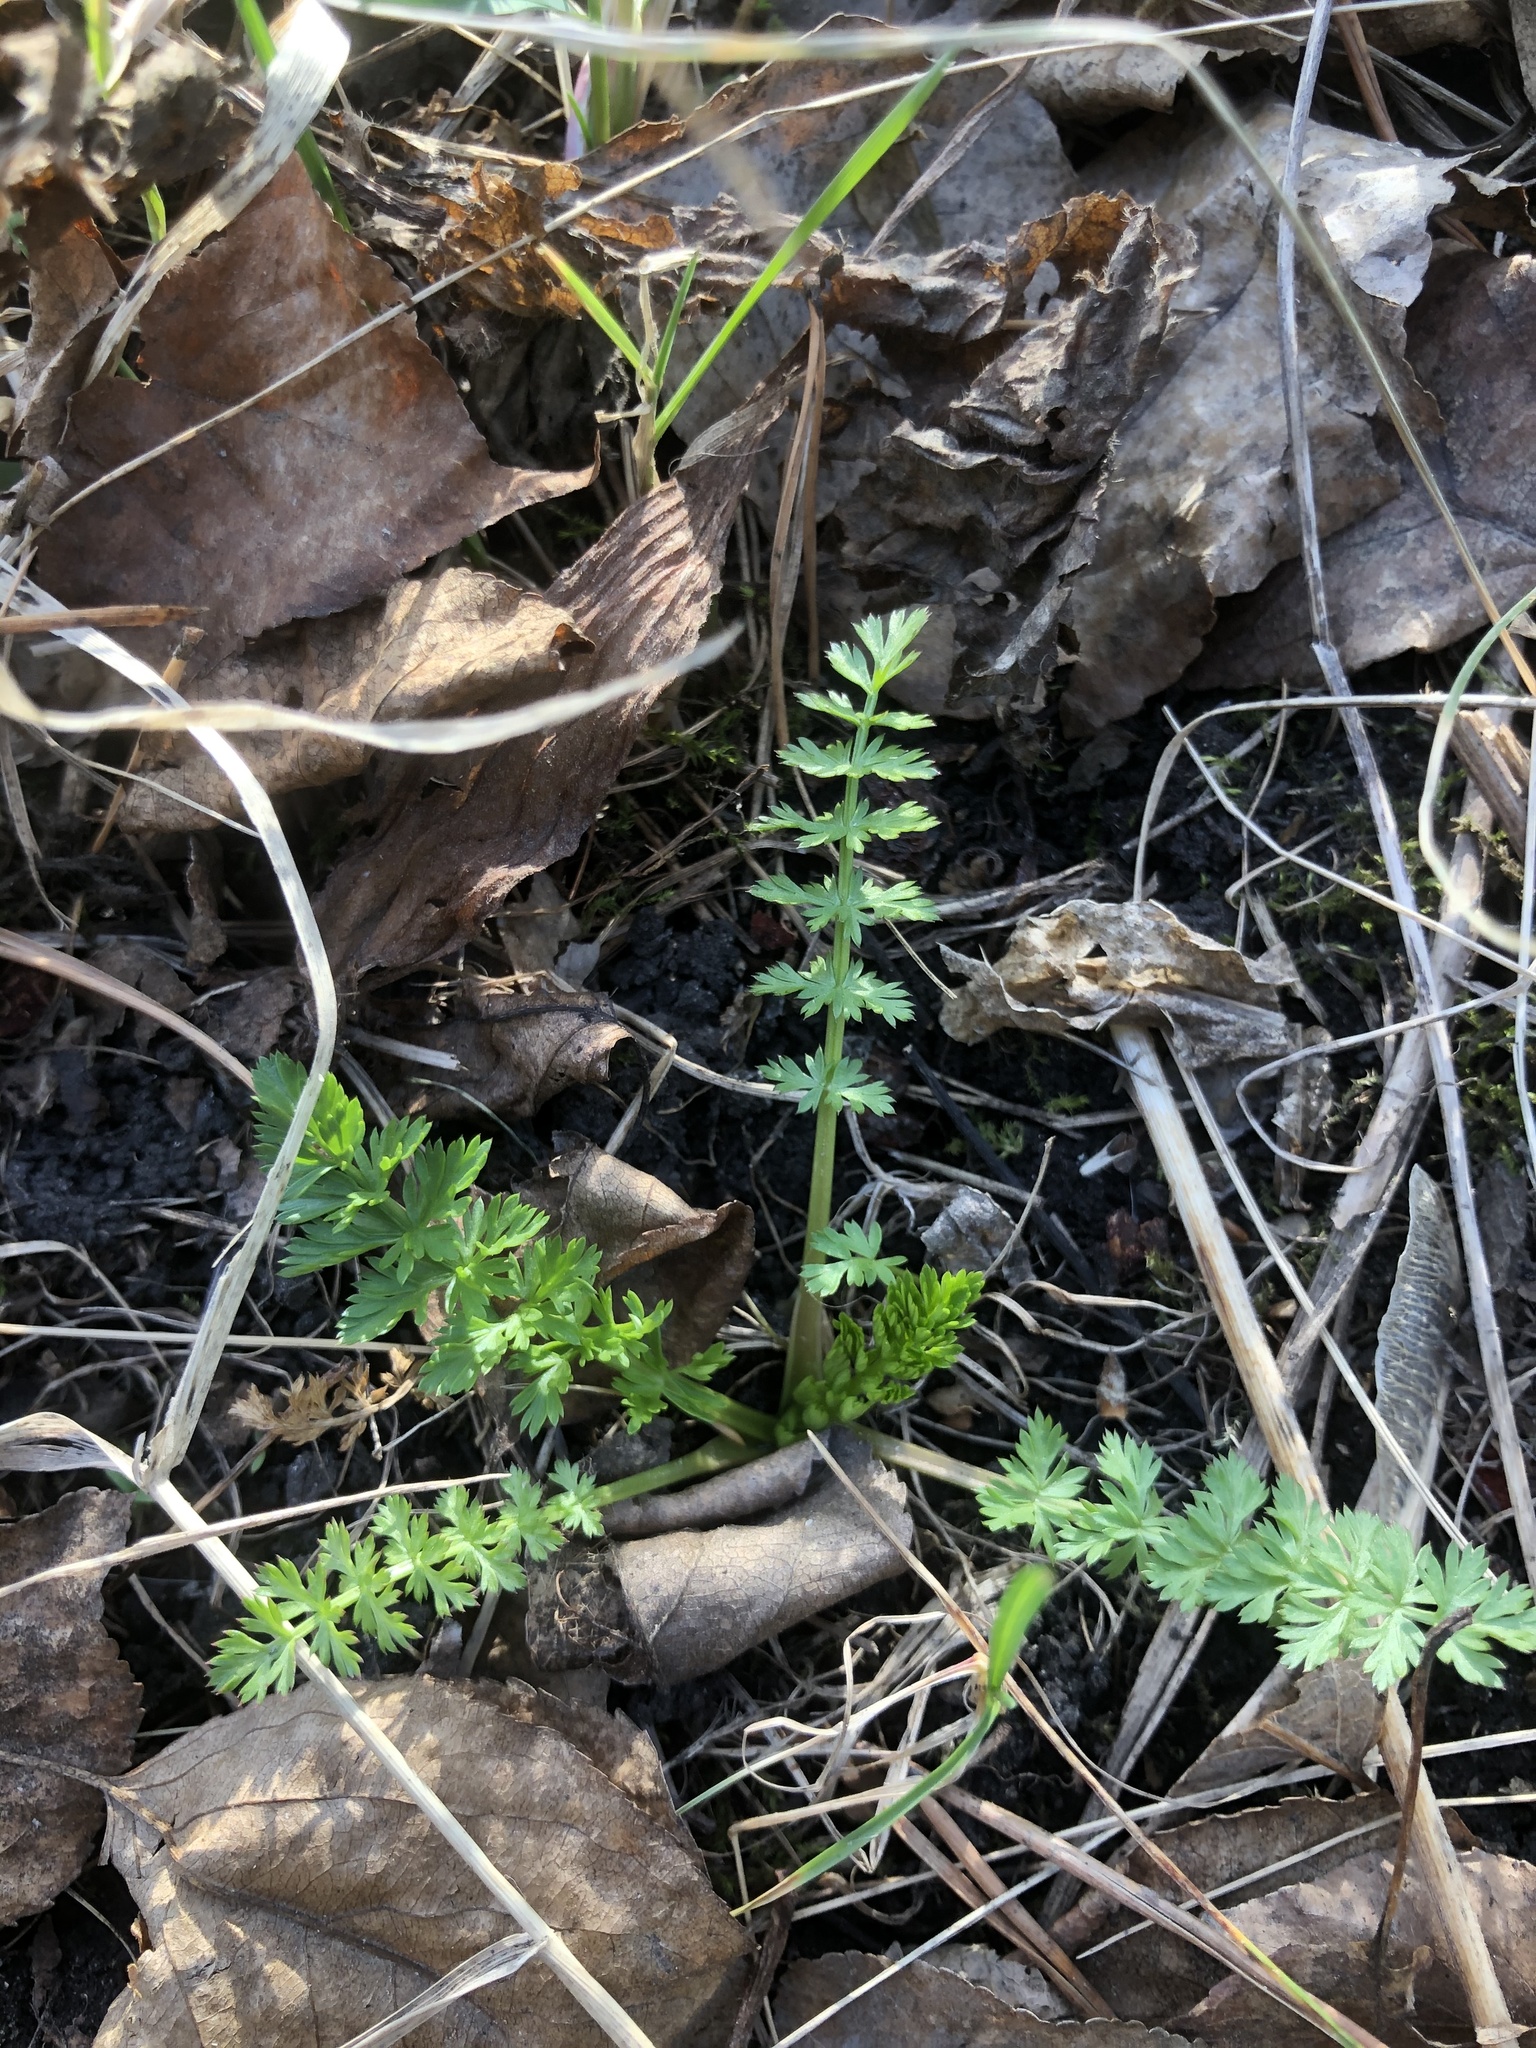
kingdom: Plantae
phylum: Tracheophyta
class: Magnoliopsida
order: Apiales
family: Apiaceae
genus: Carum
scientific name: Carum carvi
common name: Caraway
